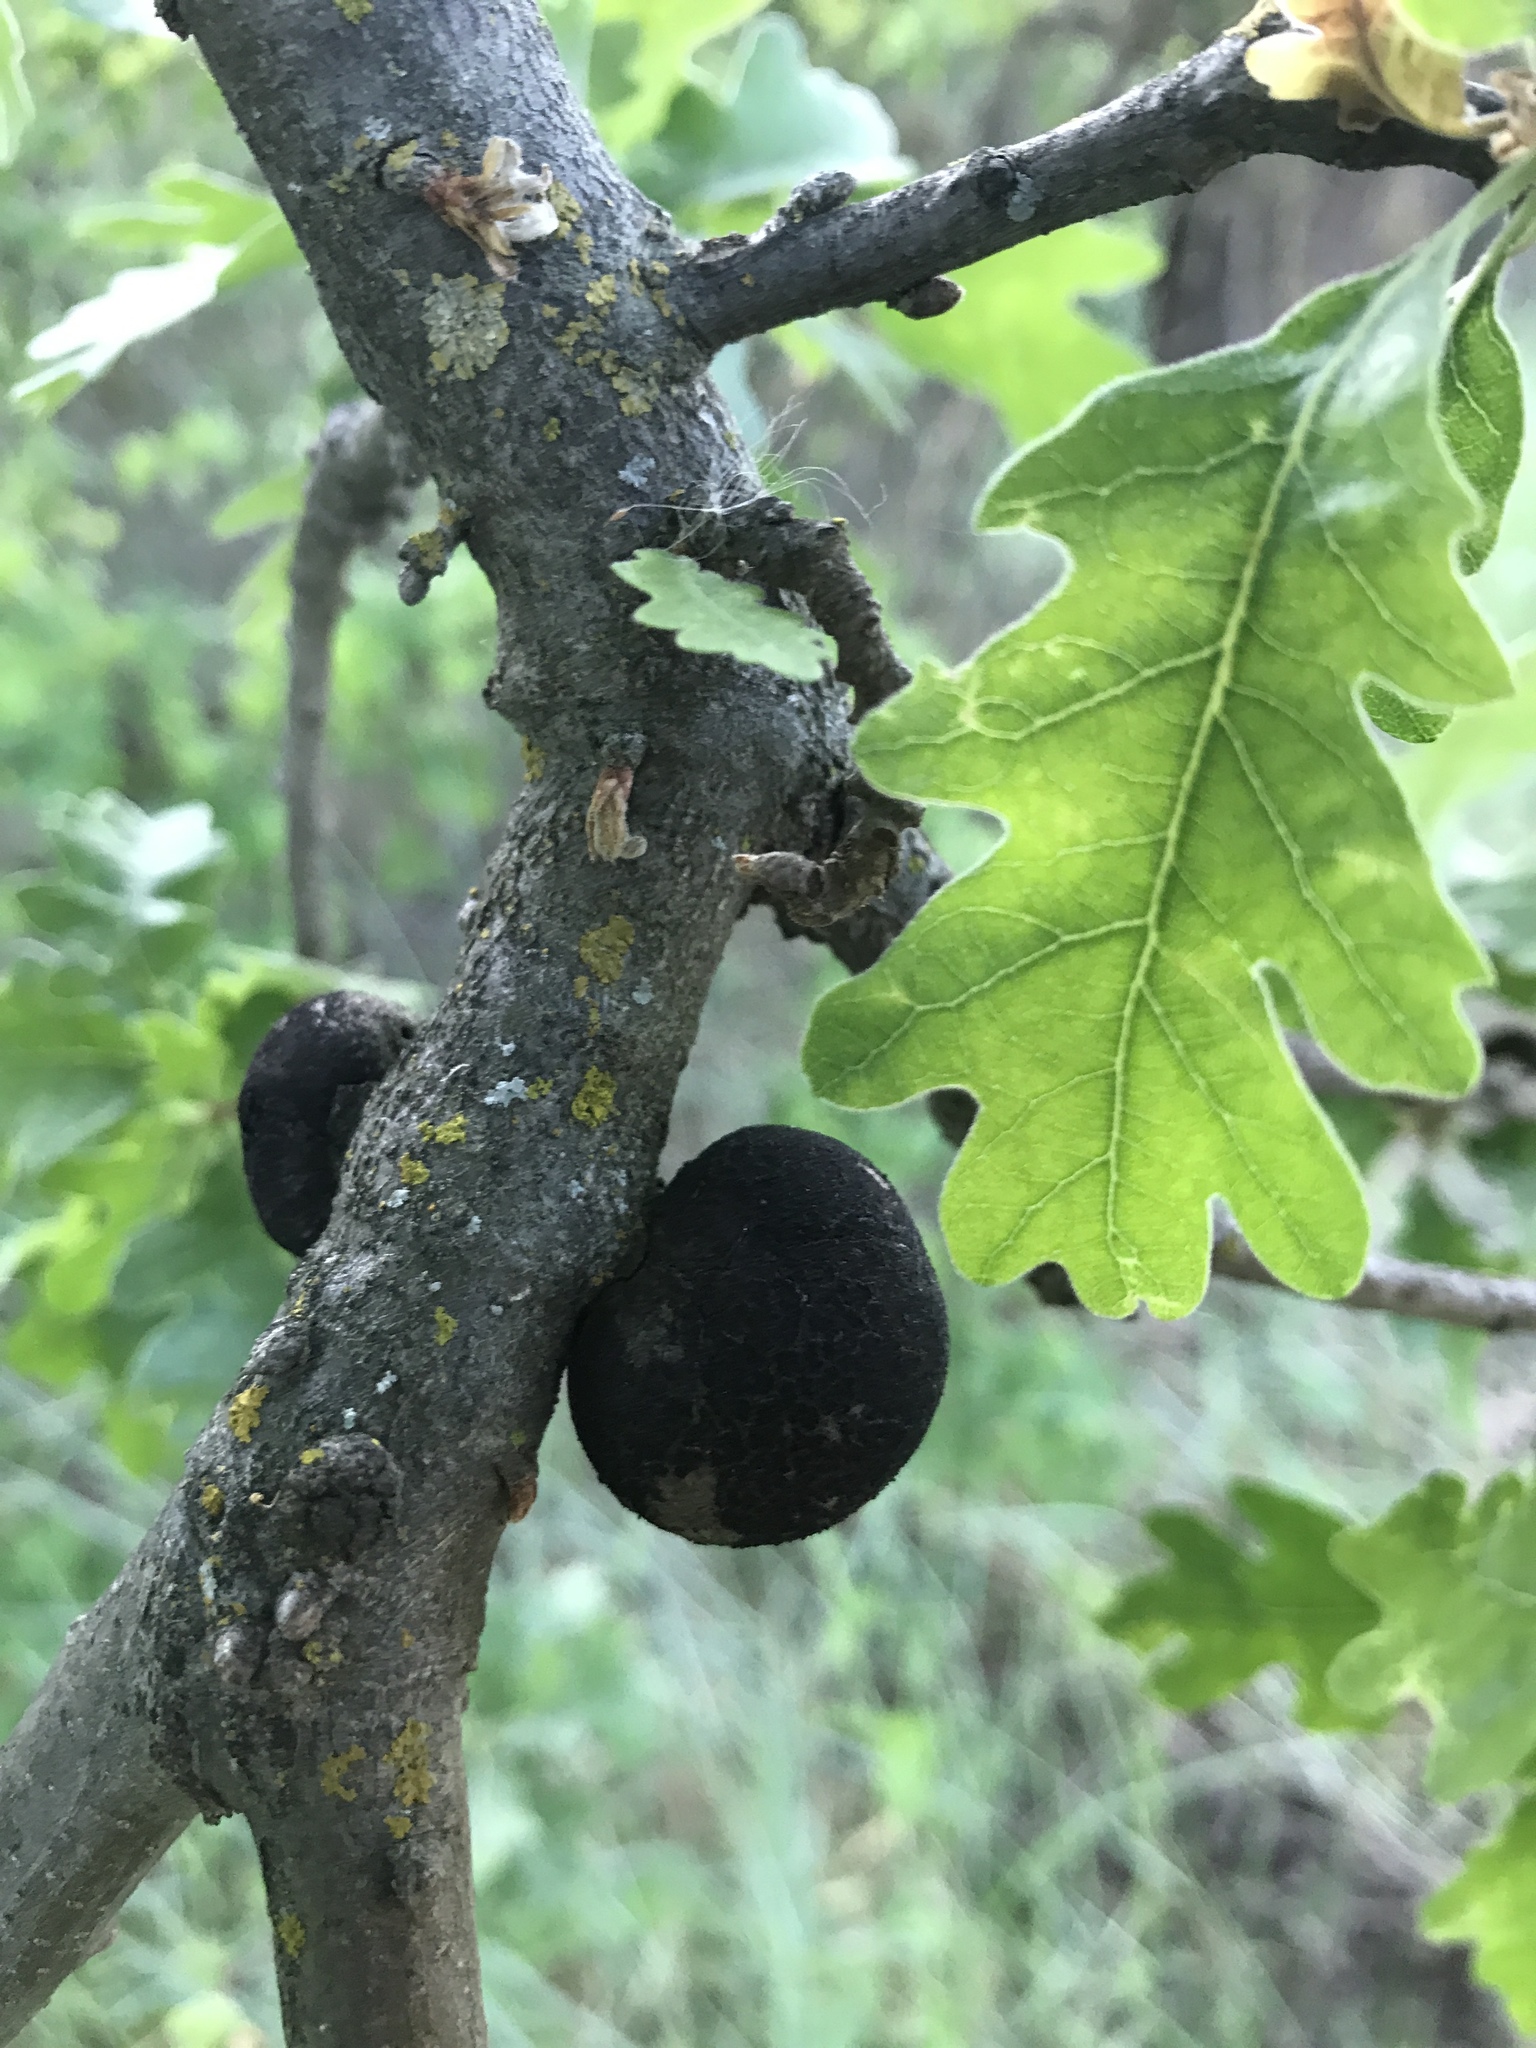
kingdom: Animalia
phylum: Arthropoda
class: Insecta
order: Hymenoptera
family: Cynipidae
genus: Andricus
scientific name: Andricus quercuscalifornicus
